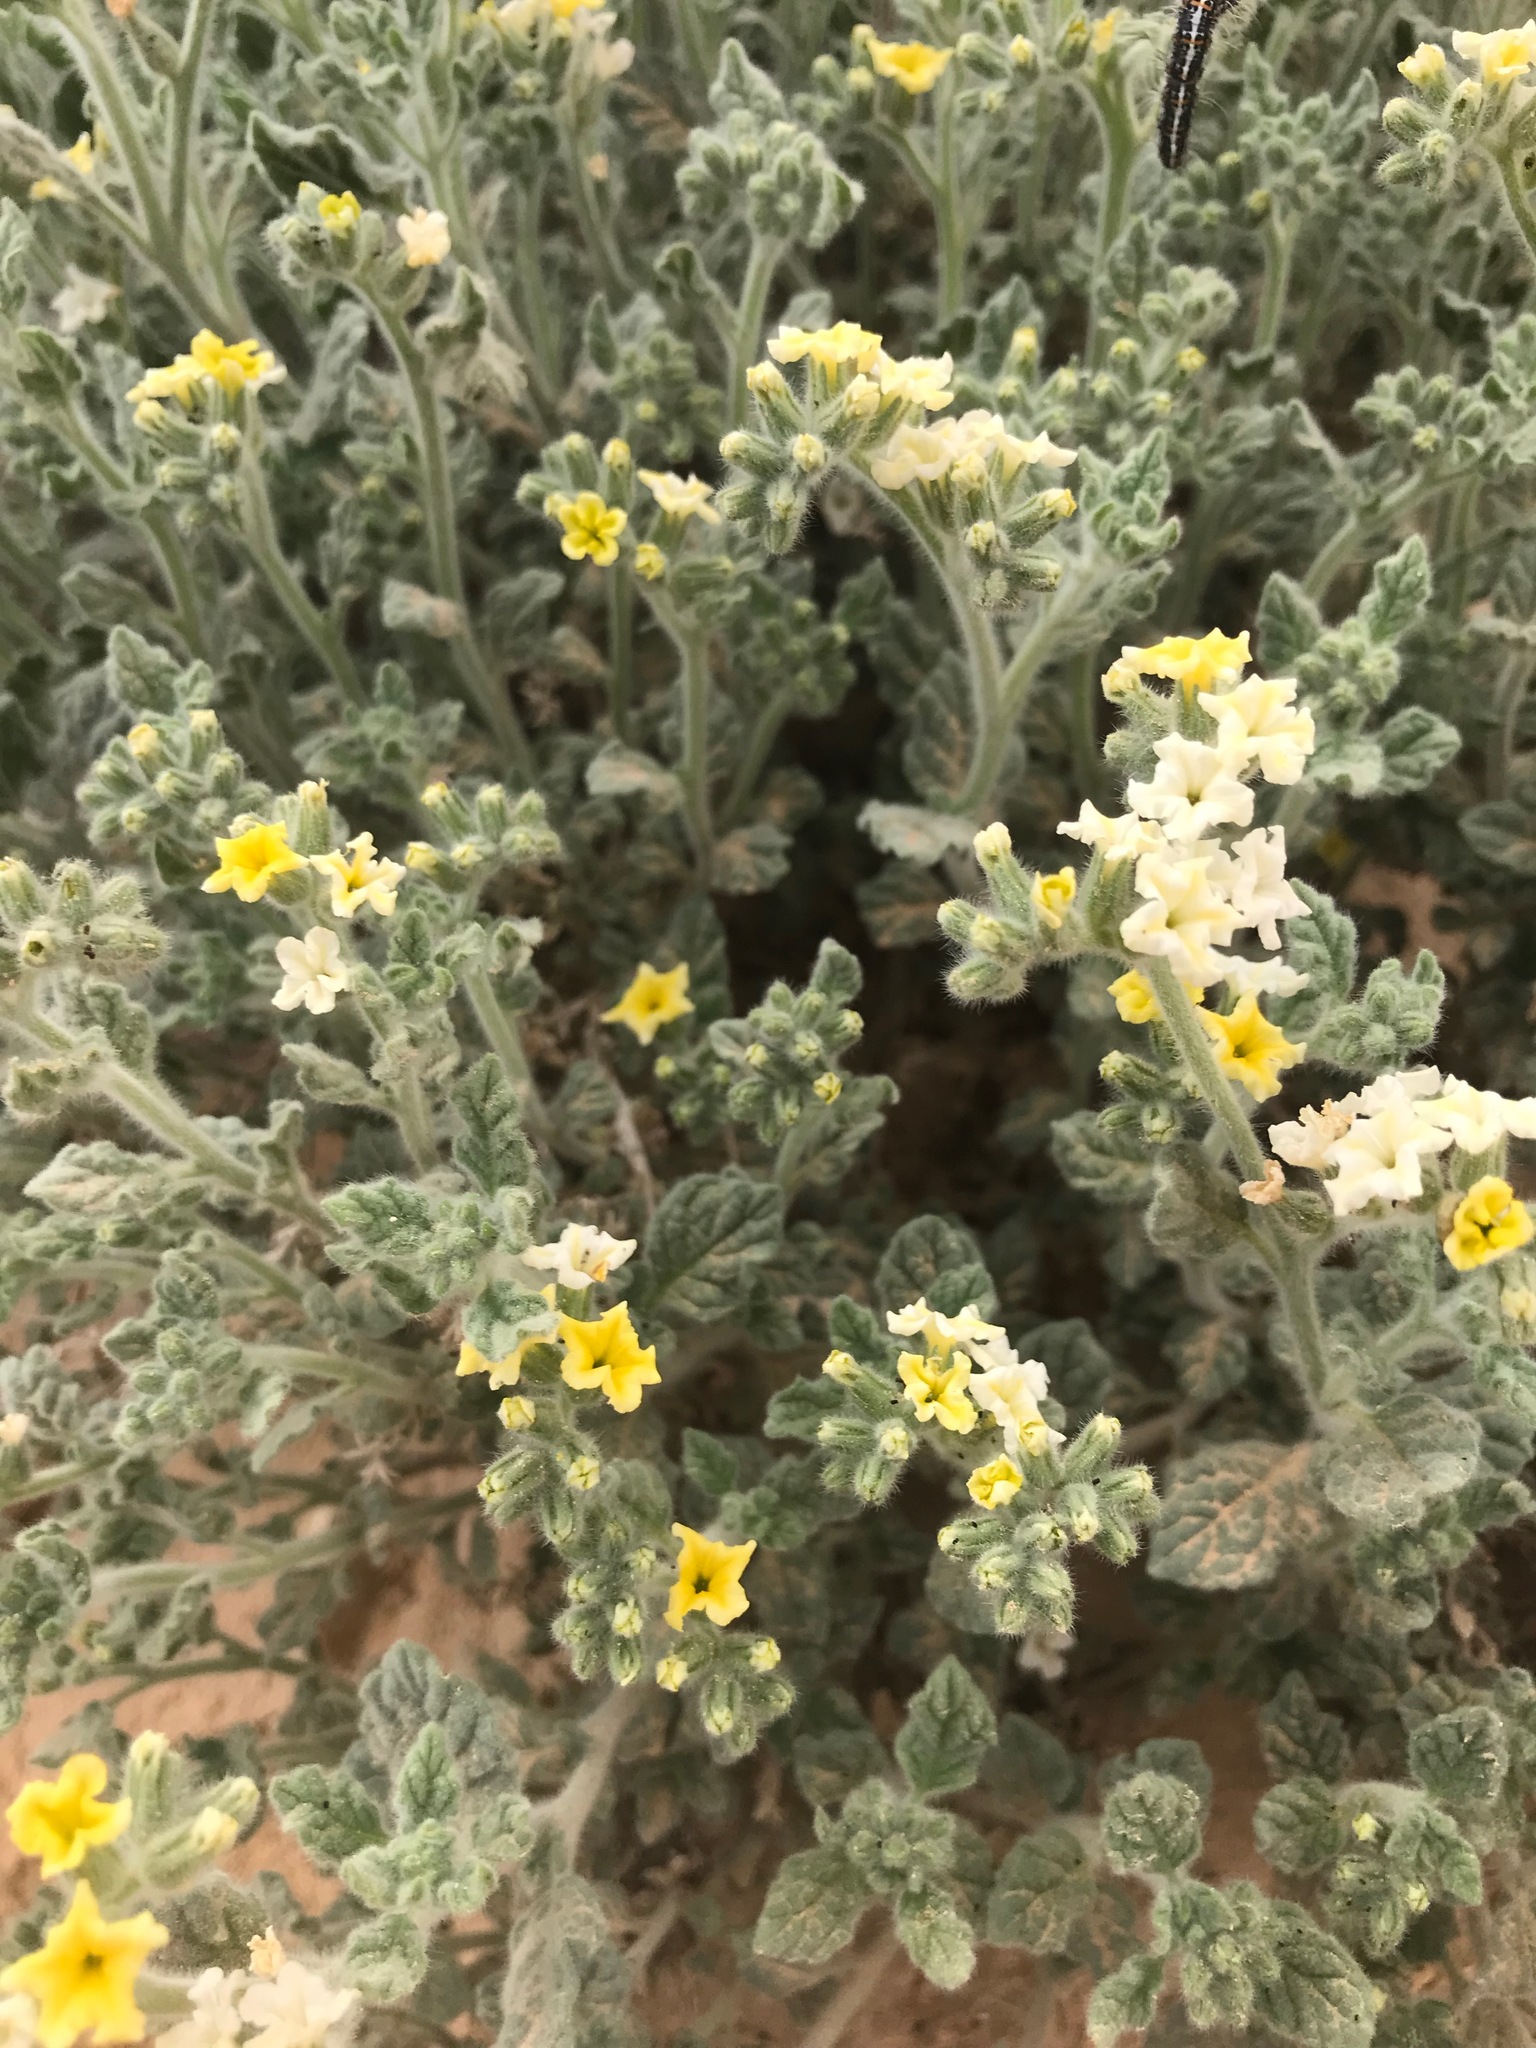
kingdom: Plantae
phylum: Tracheophyta
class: Magnoliopsida
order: Boraginales
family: Heliotropiaceae
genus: Heliotropium
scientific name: Heliotropium arbainense
